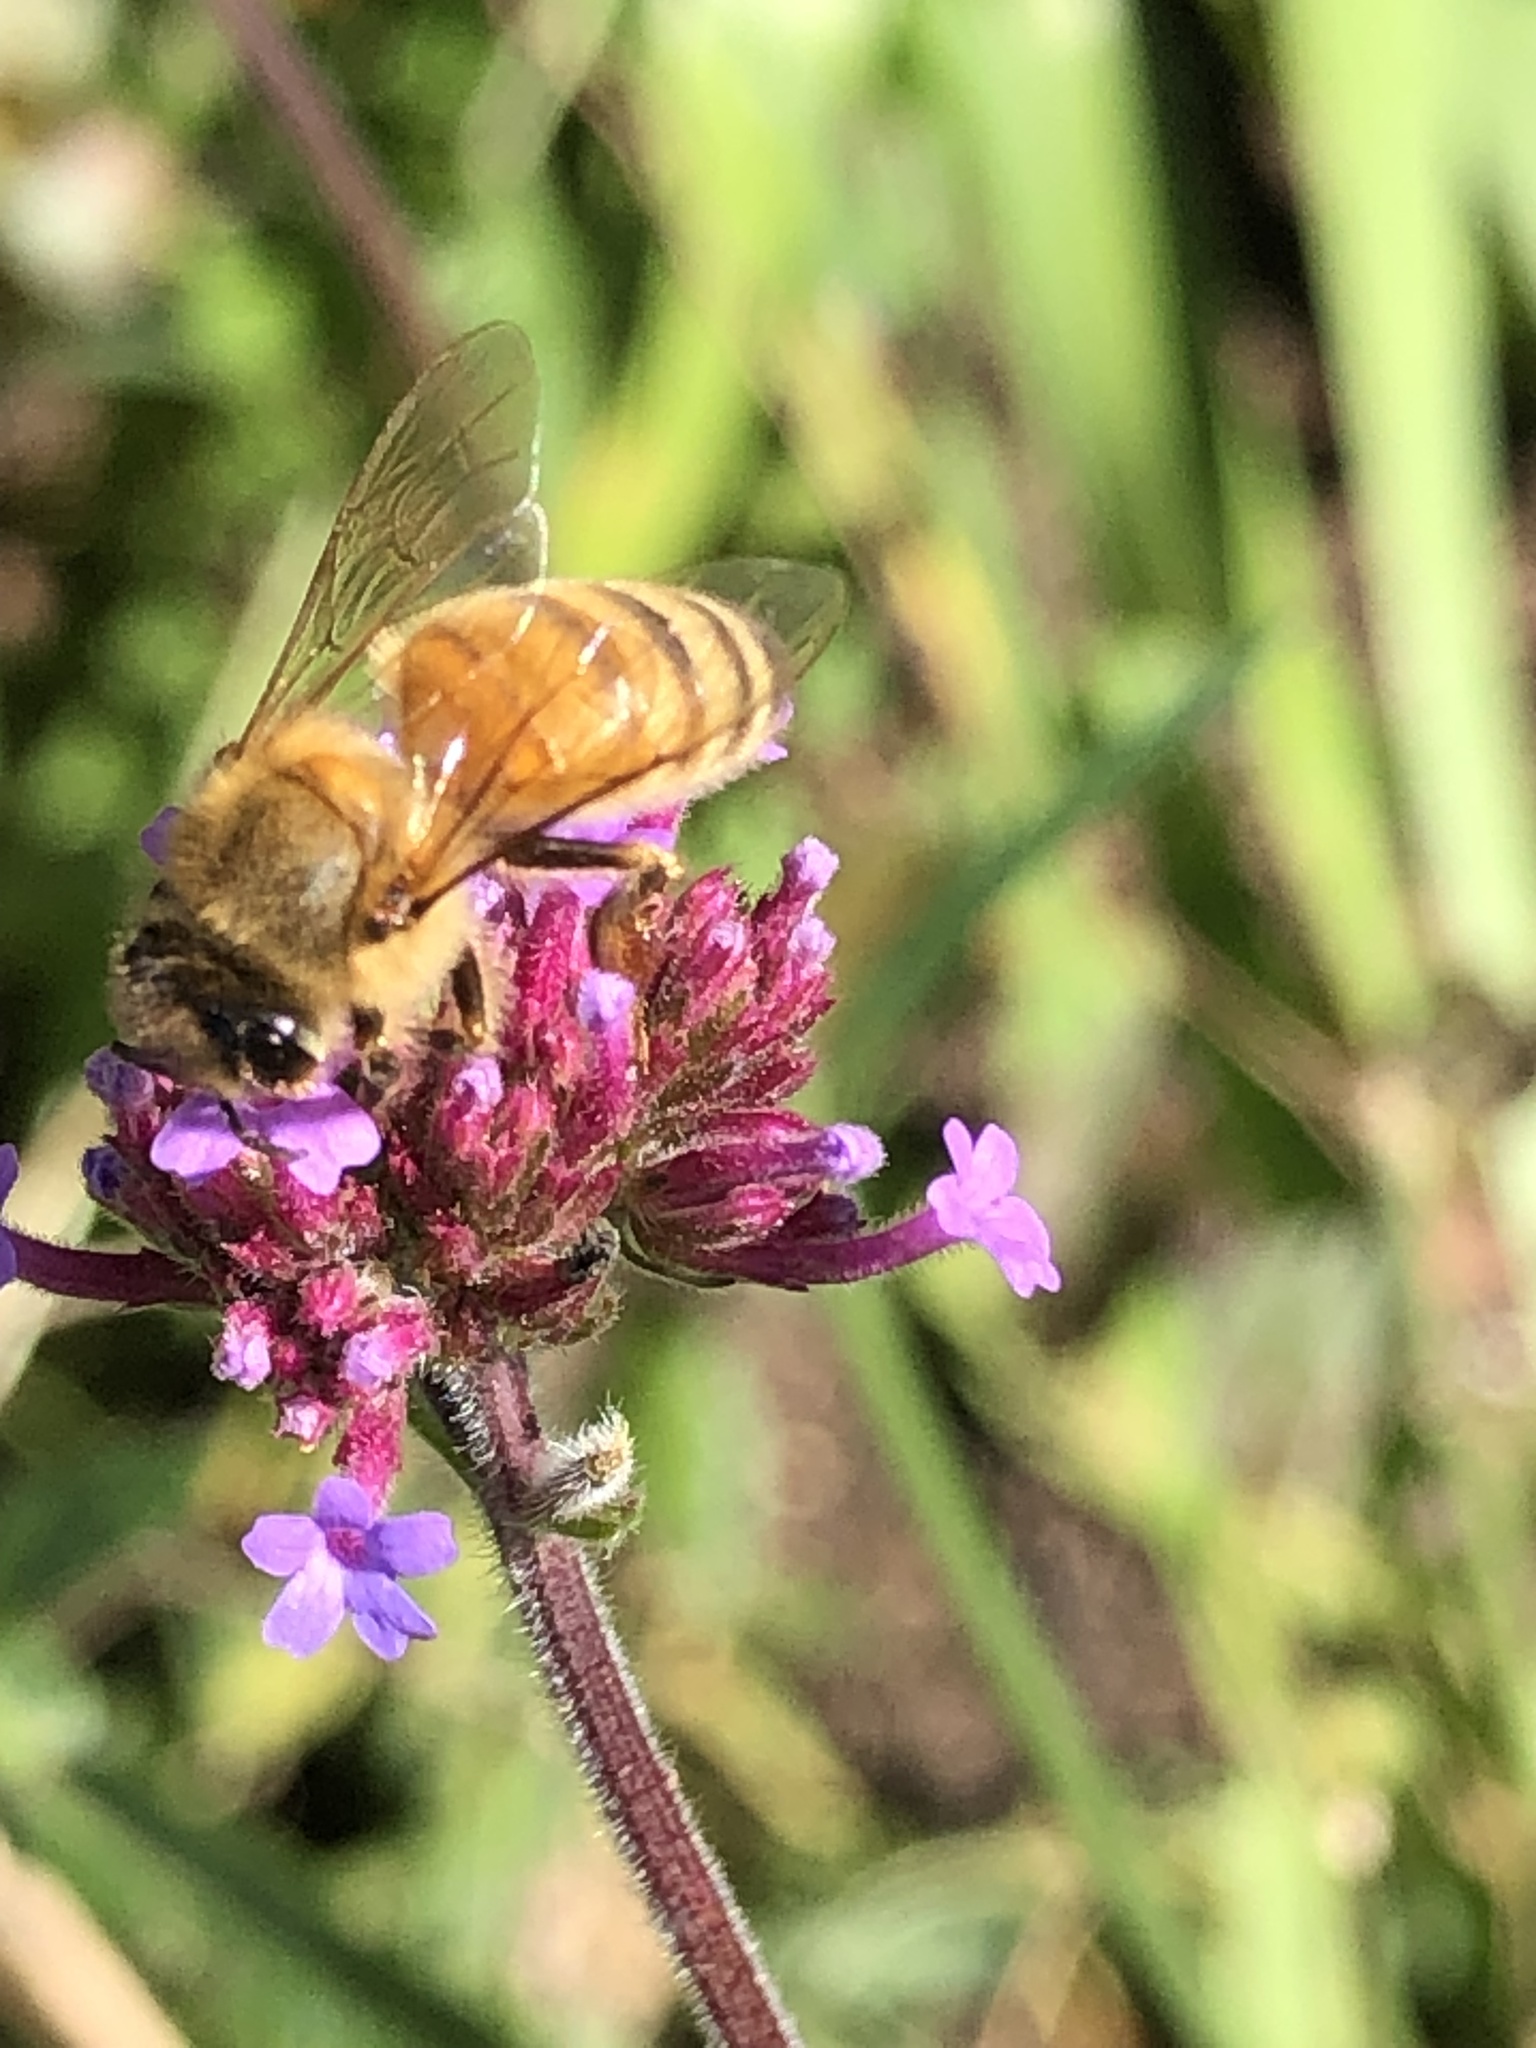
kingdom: Animalia
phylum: Arthropoda
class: Insecta
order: Hymenoptera
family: Apidae
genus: Apis
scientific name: Apis mellifera
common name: Honey bee
